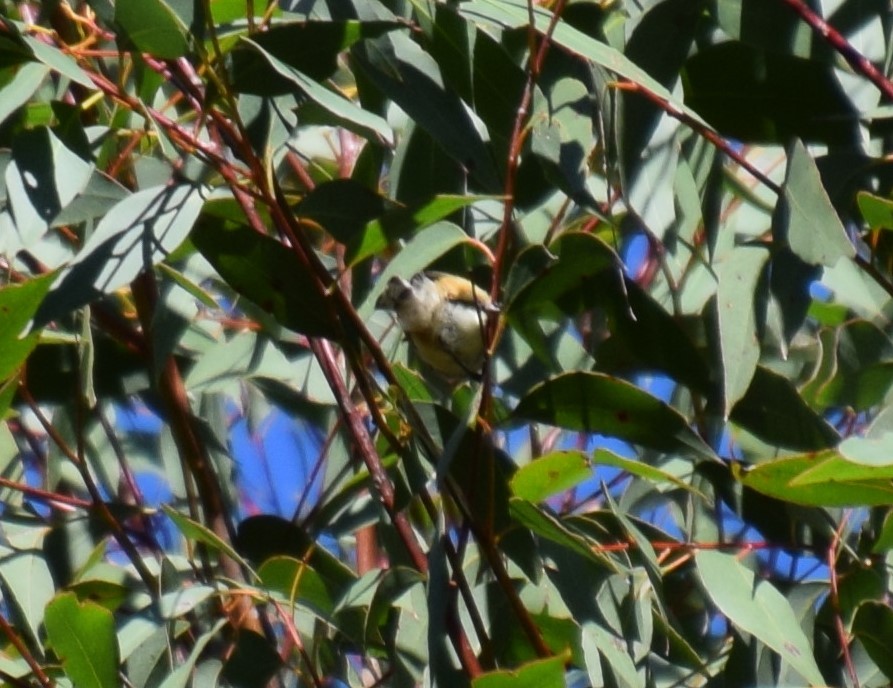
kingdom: Animalia
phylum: Chordata
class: Aves
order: Passeriformes
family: Meliphagidae
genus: Acanthorhynchus
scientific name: Acanthorhynchus tenuirostris
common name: Eastern spinebill
